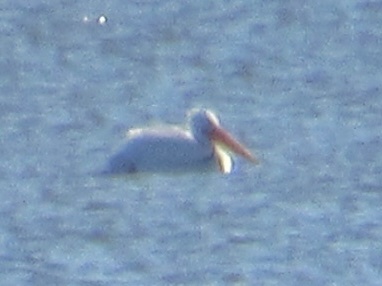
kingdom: Animalia
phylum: Chordata
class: Aves
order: Pelecaniformes
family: Pelecanidae
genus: Pelecanus
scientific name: Pelecanus erythrorhynchos
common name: American white pelican
